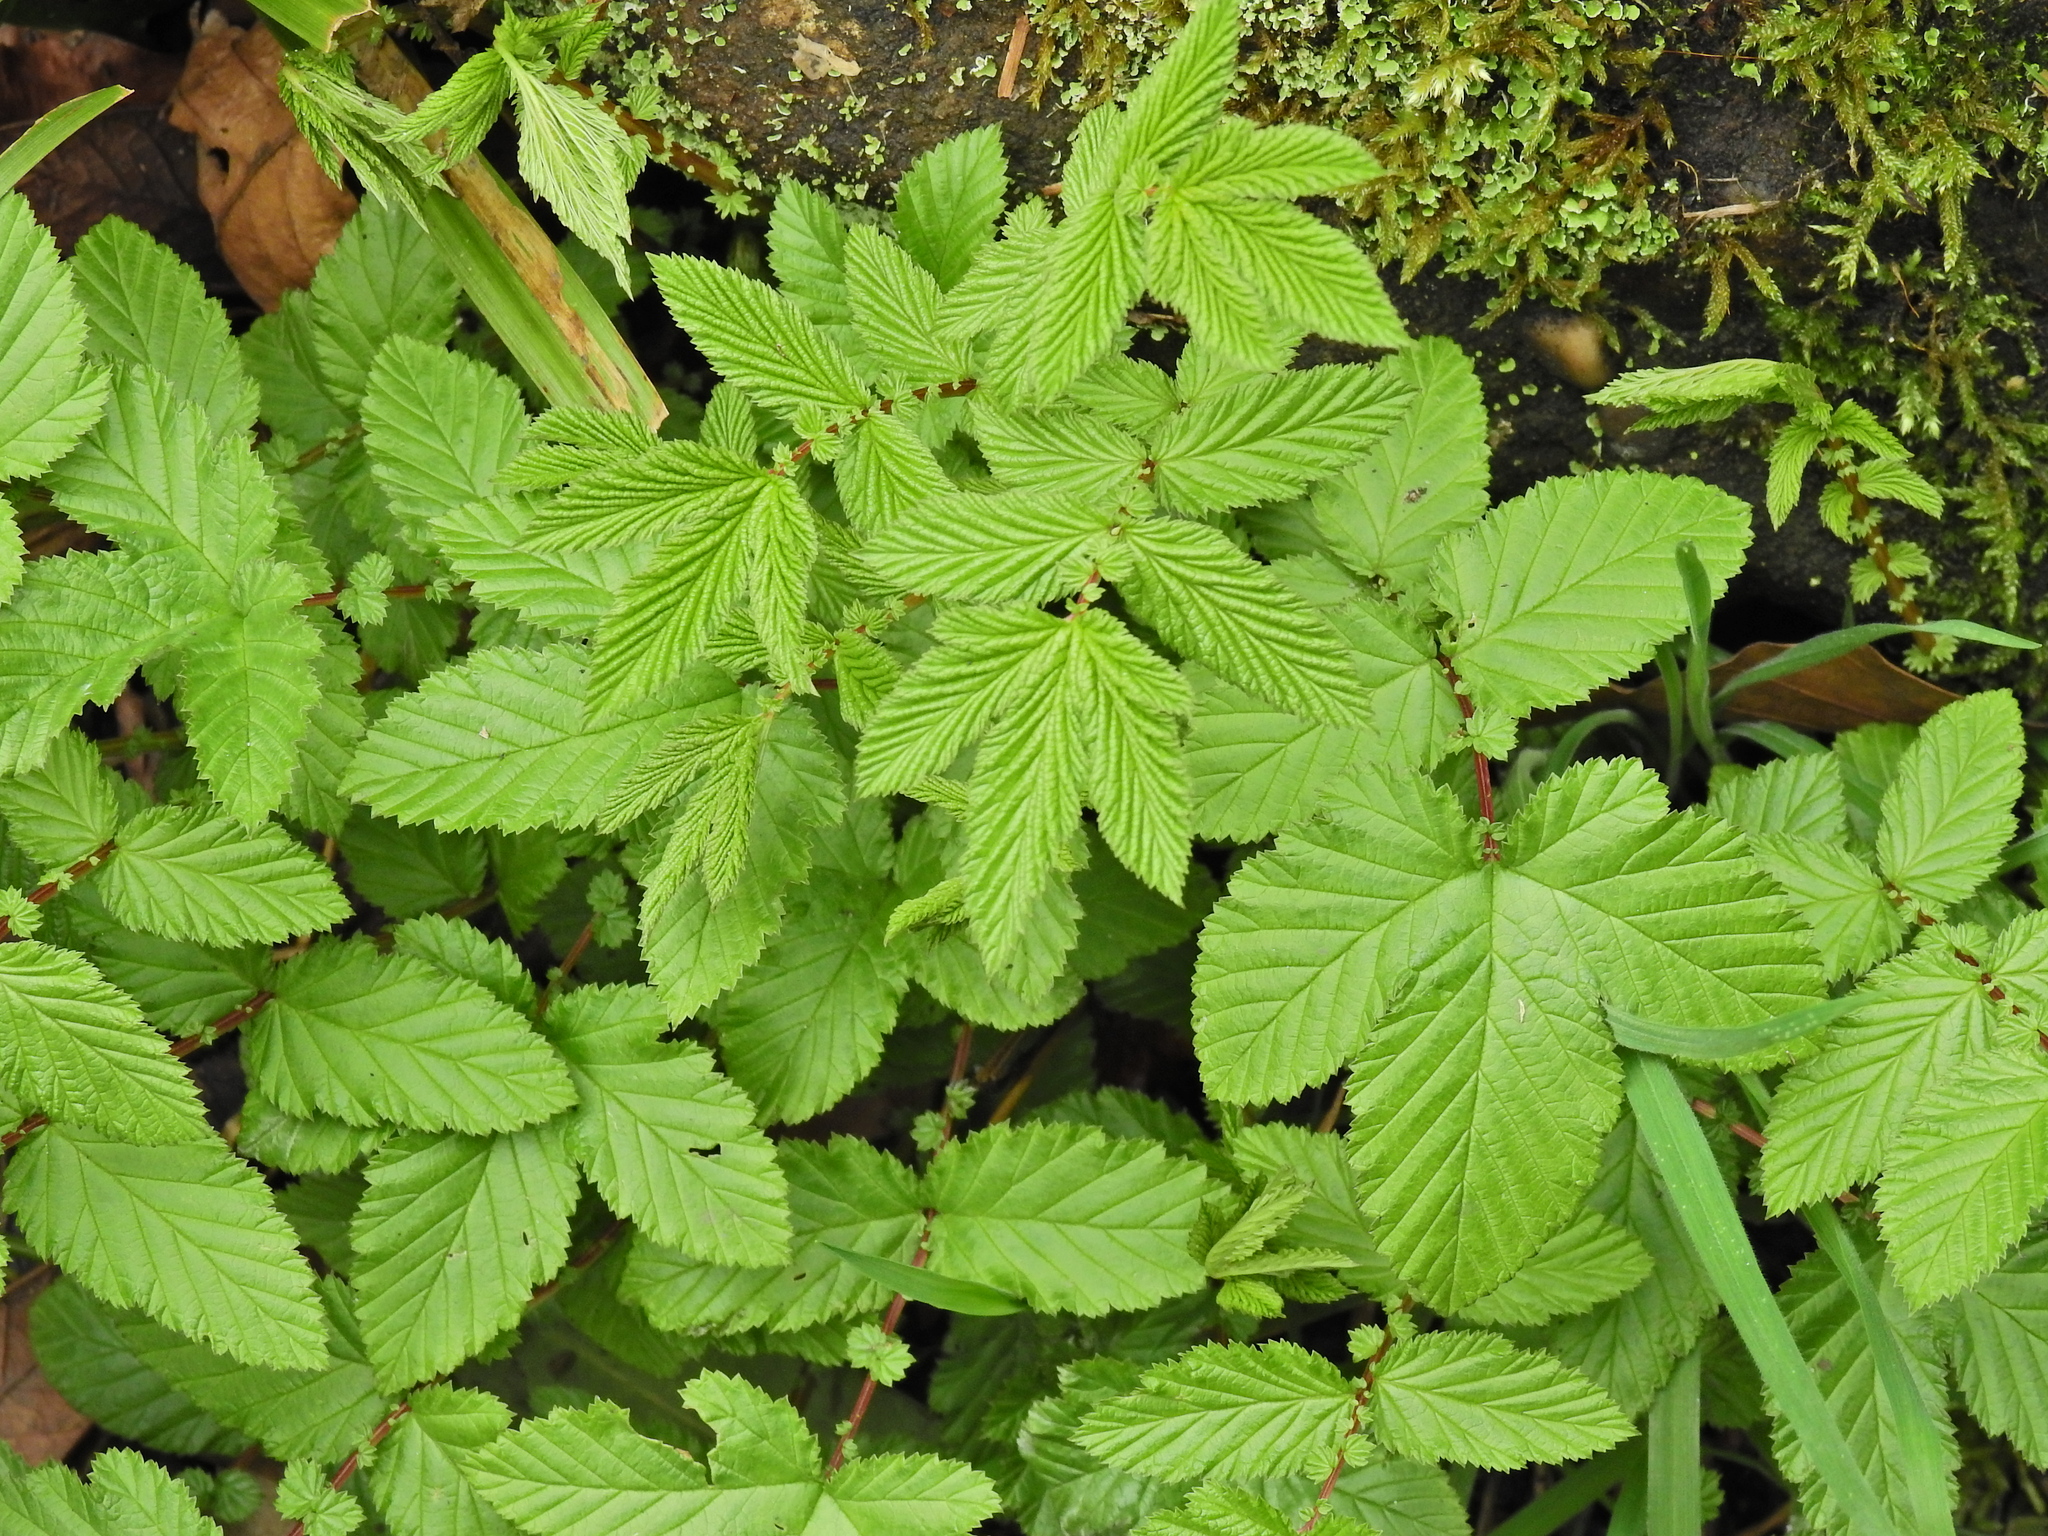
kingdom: Plantae
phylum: Tracheophyta
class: Magnoliopsida
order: Rosales
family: Rosaceae
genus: Filipendula
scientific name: Filipendula ulmaria
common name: Meadowsweet
